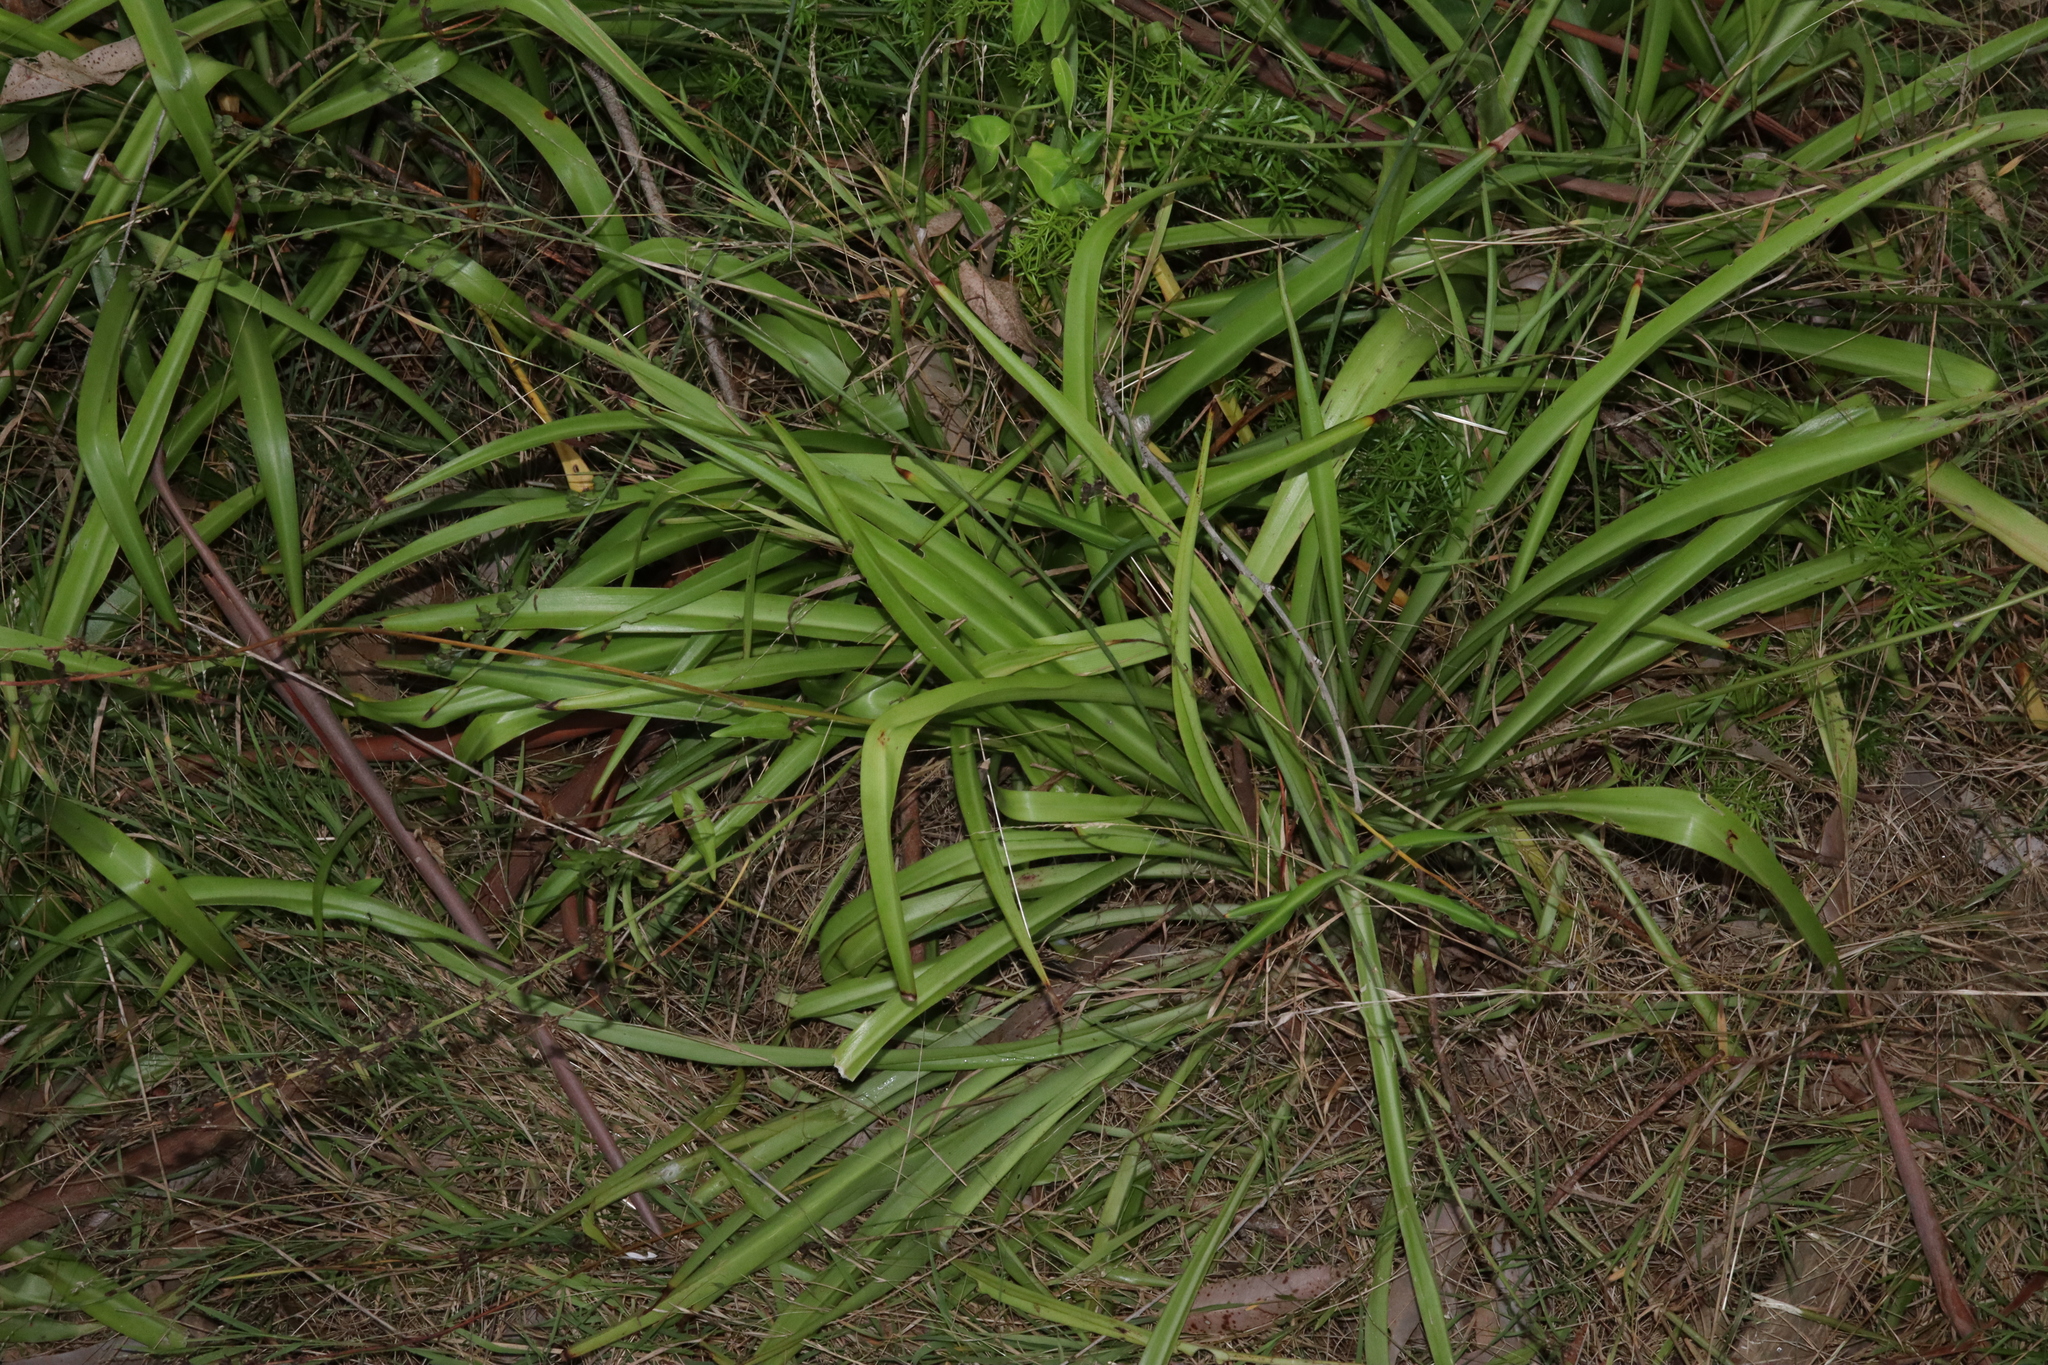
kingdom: Plantae
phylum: Tracheophyta
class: Liliopsida
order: Asparagales
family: Asparagaceae
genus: Chlorophytum
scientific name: Chlorophytum comosum
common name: Spider plant
